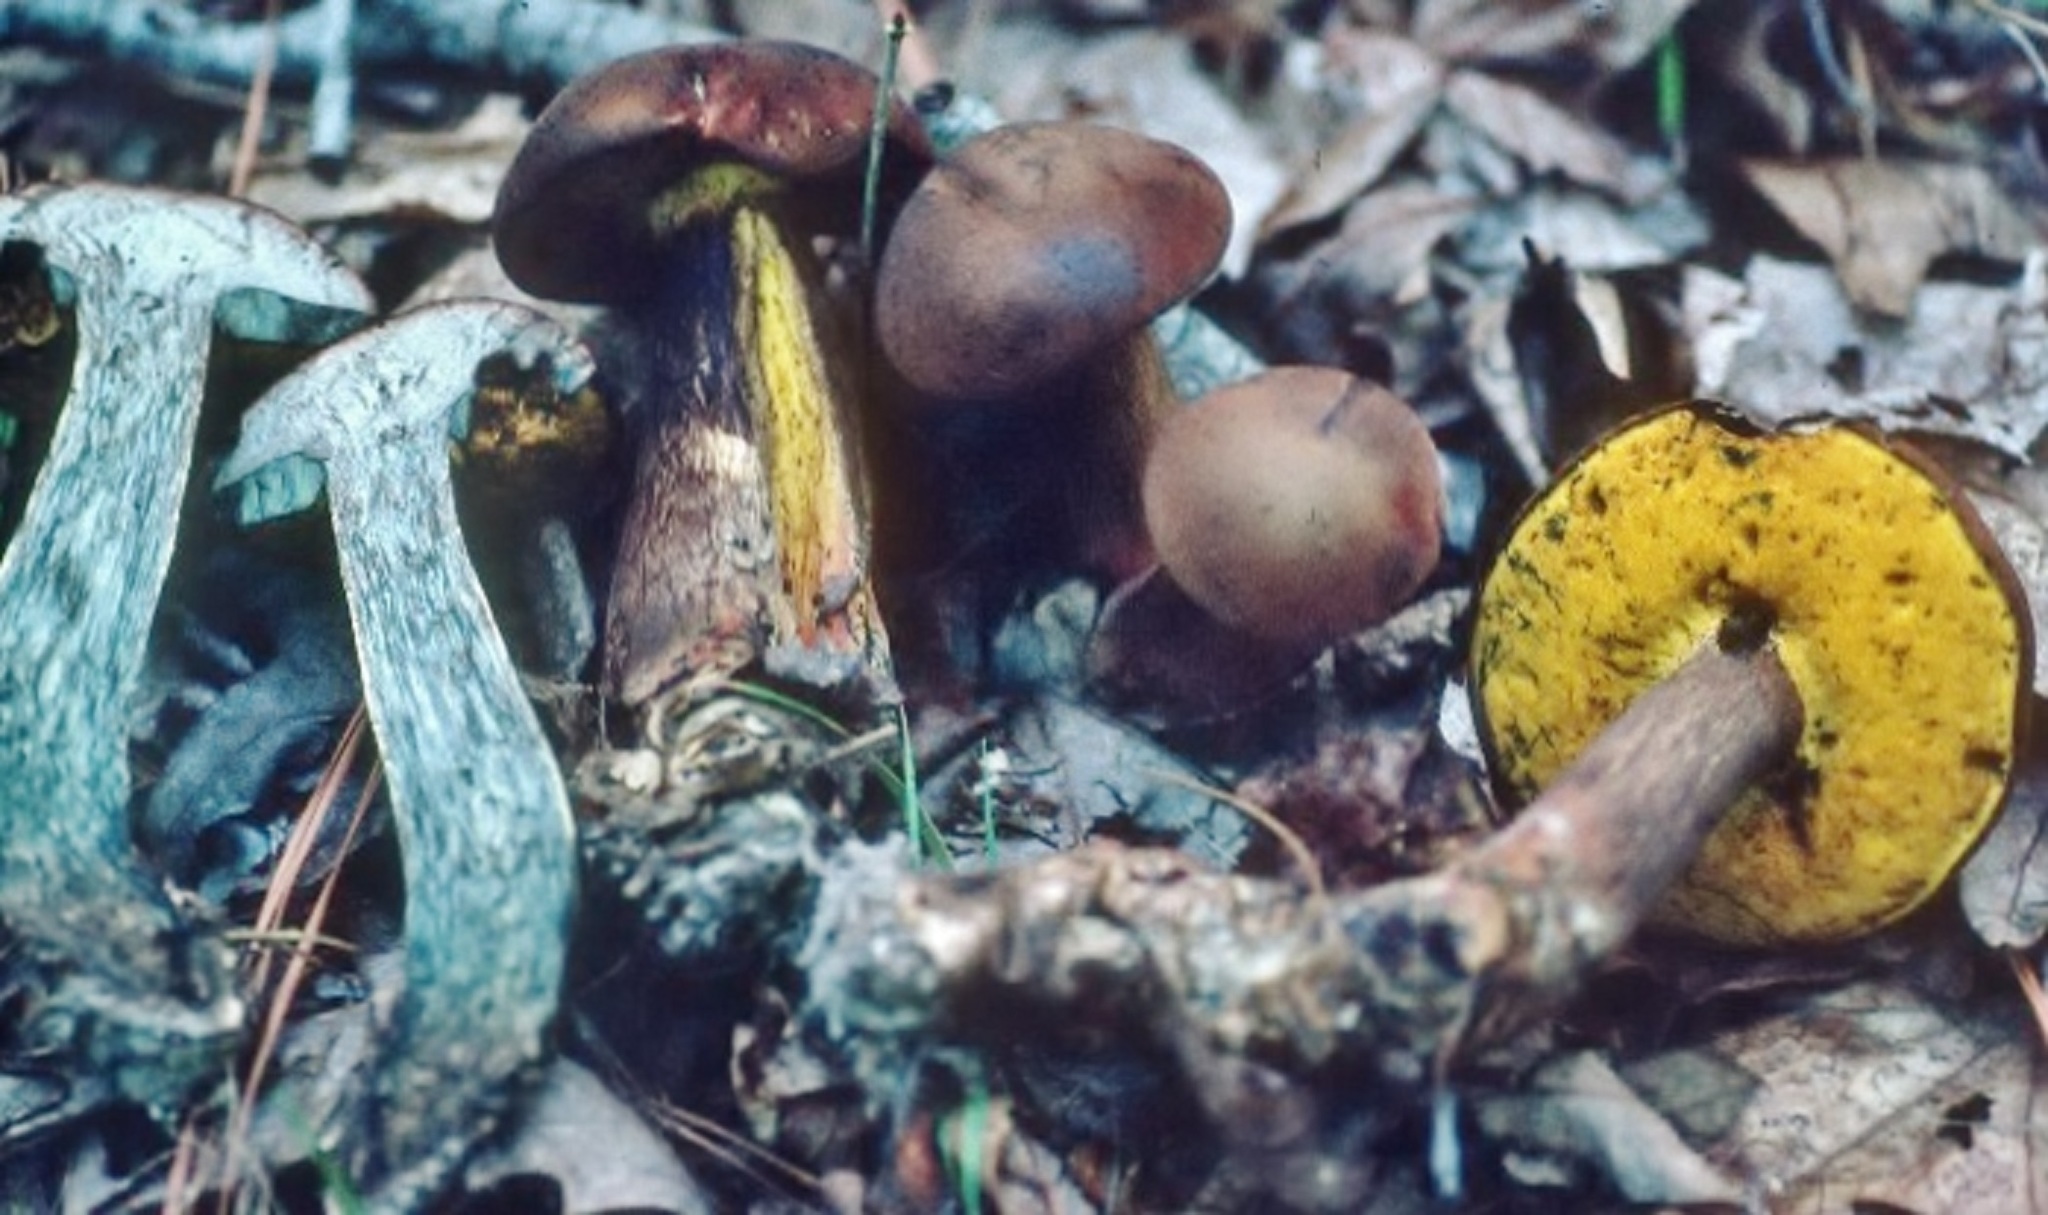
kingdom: Fungi
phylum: Basidiomycota
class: Agaricomycetes
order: Boletales
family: Boletaceae
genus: Cyanoboletus
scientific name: Cyanoboletus pulverulentus
